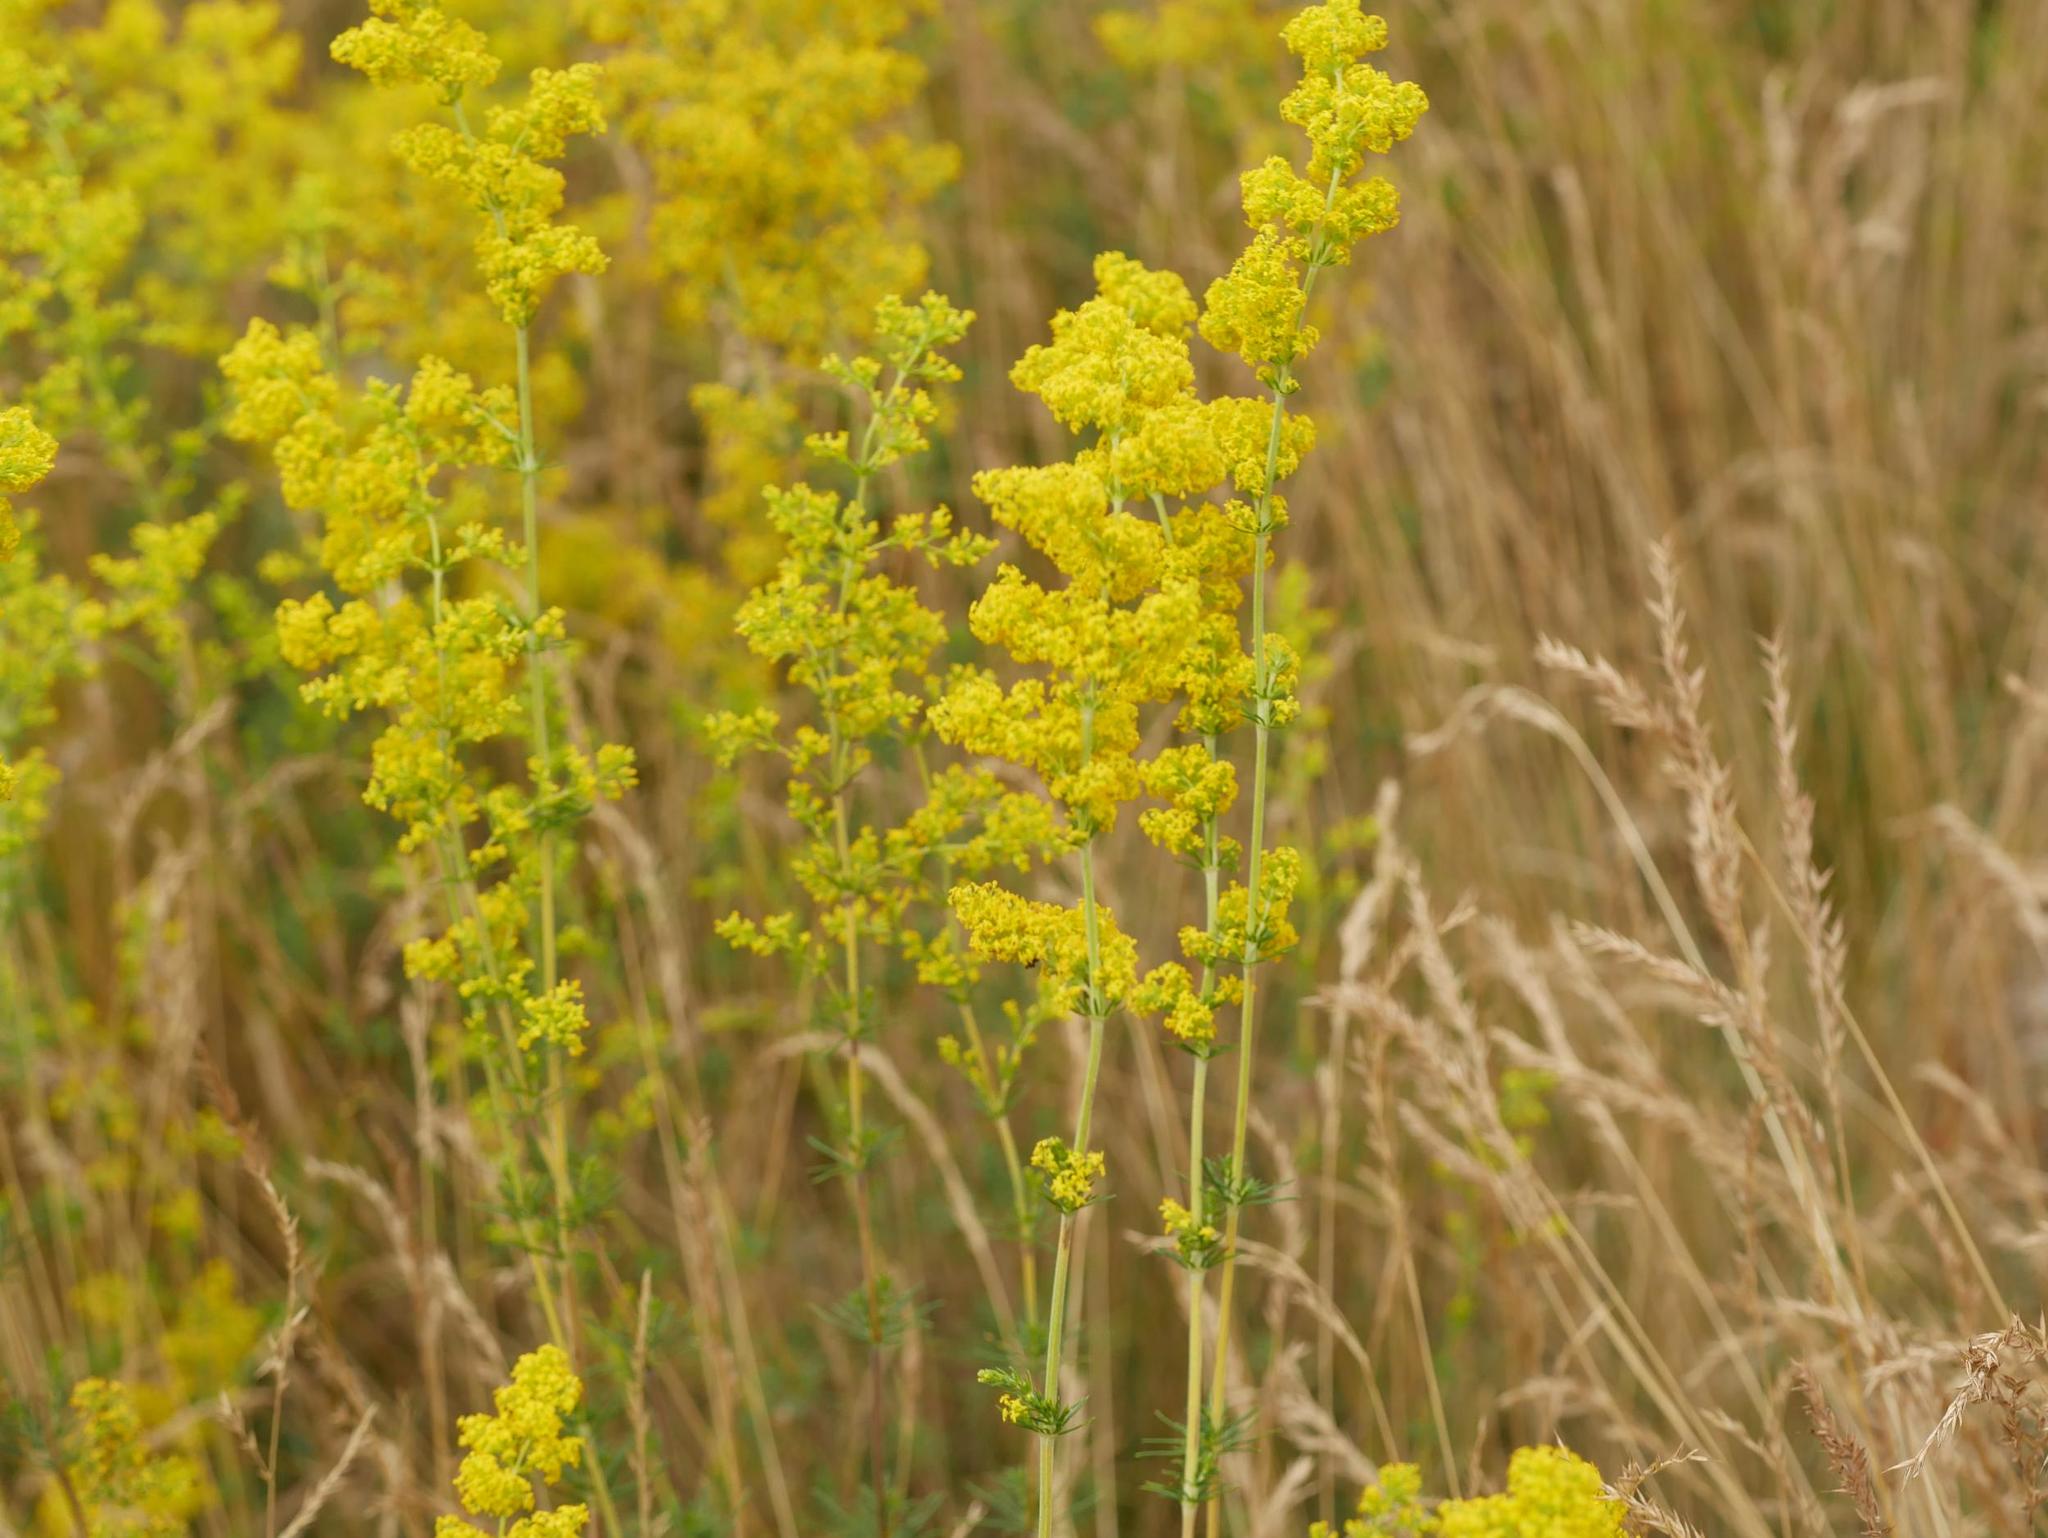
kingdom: Plantae
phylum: Tracheophyta
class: Magnoliopsida
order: Gentianales
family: Rubiaceae
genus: Galium
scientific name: Galium verum
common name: Lady's bedstraw
